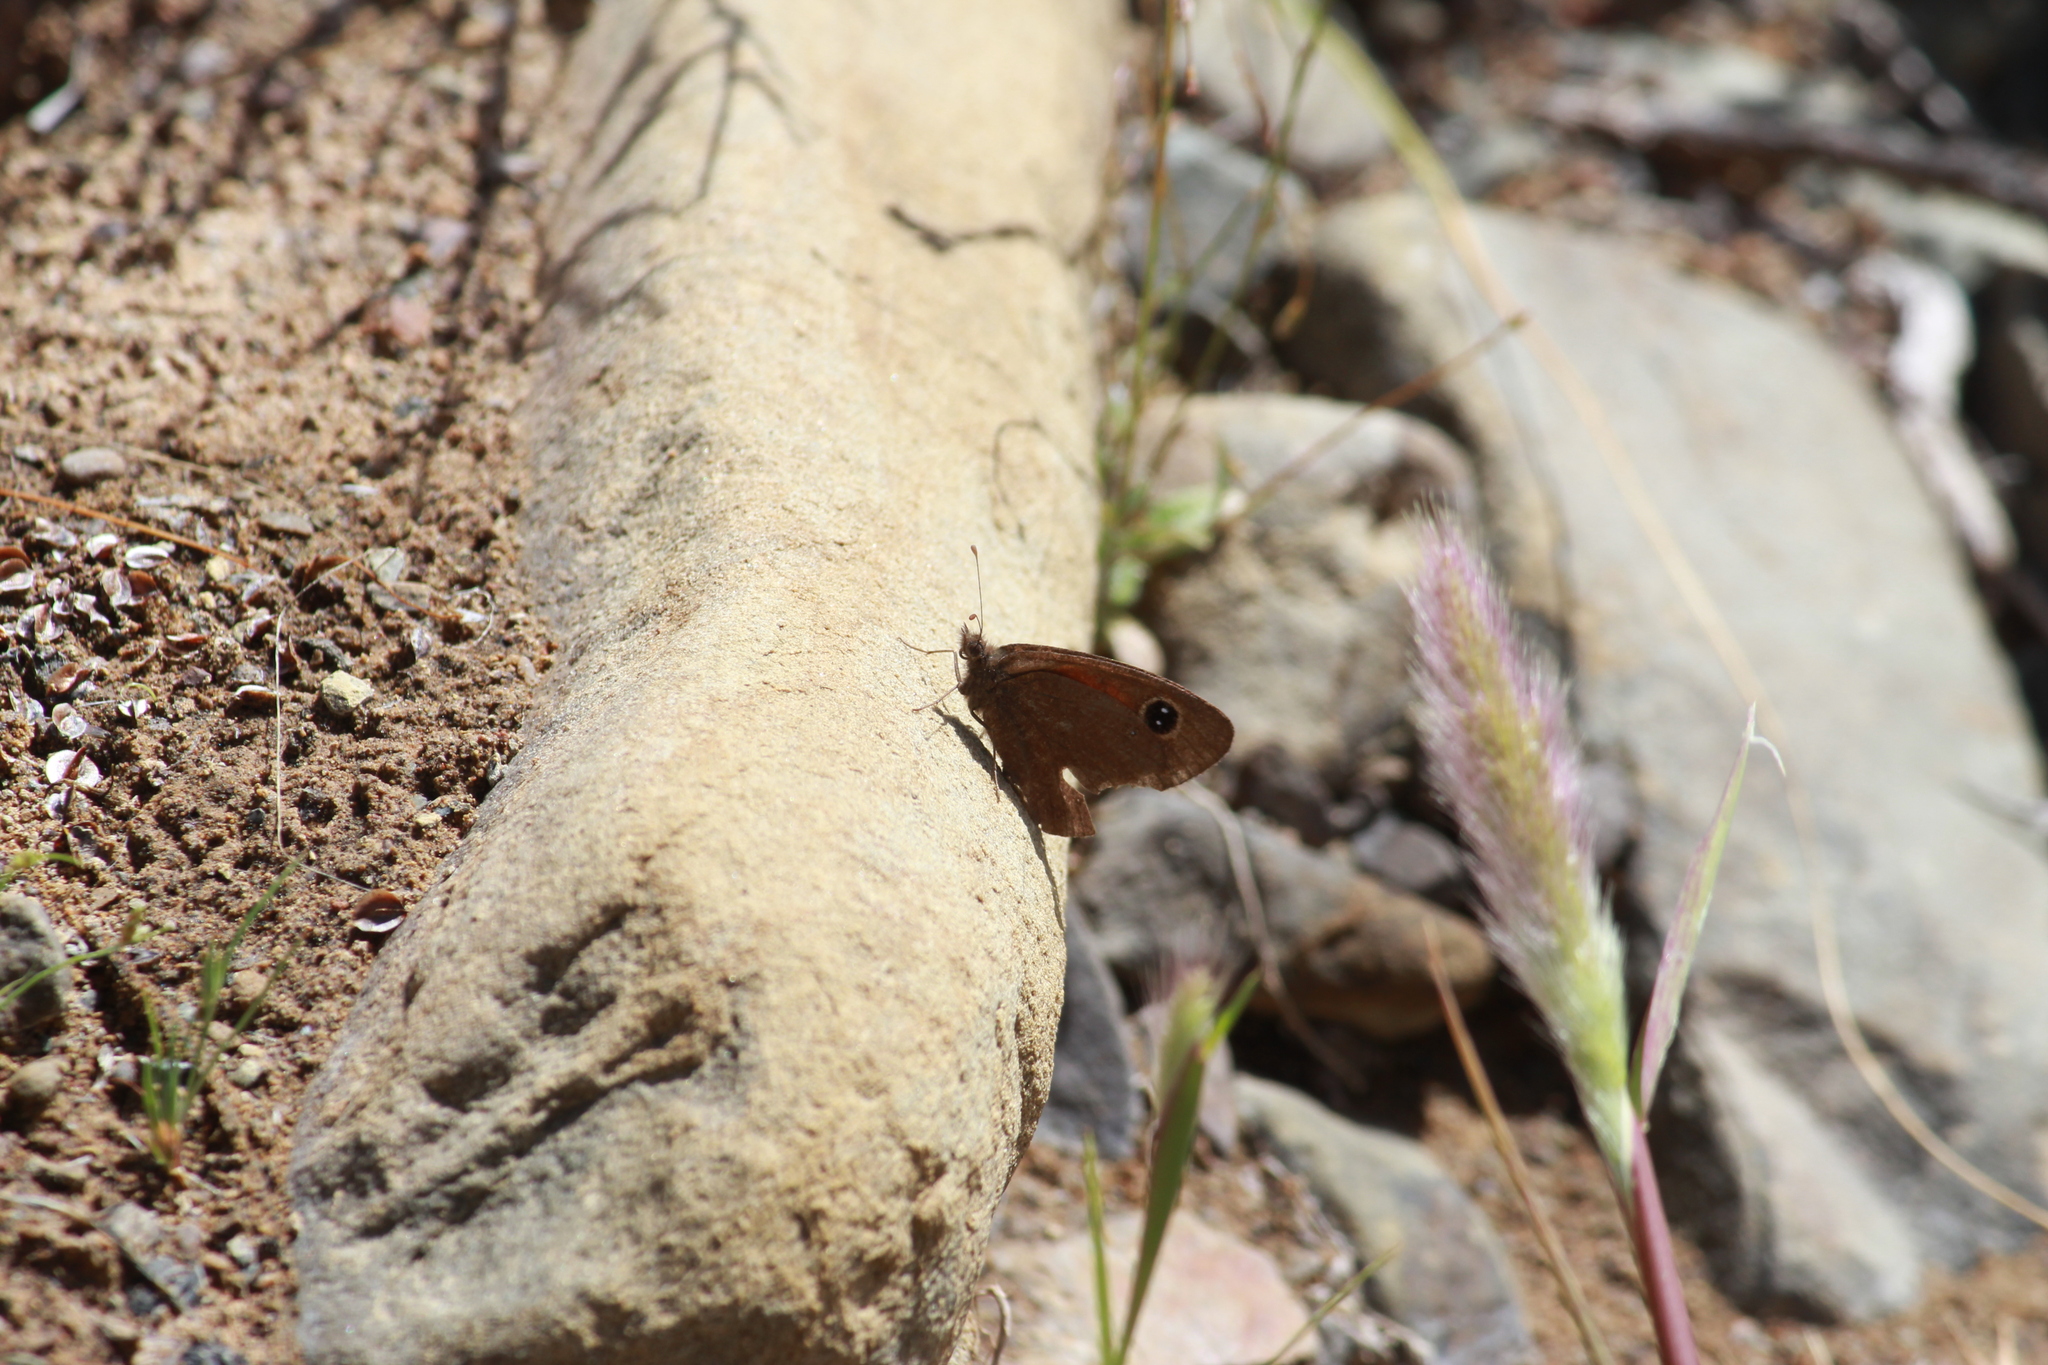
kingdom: Animalia
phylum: Arthropoda
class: Insecta
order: Lepidoptera
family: Nymphalidae
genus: Erebia
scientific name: Erebia
